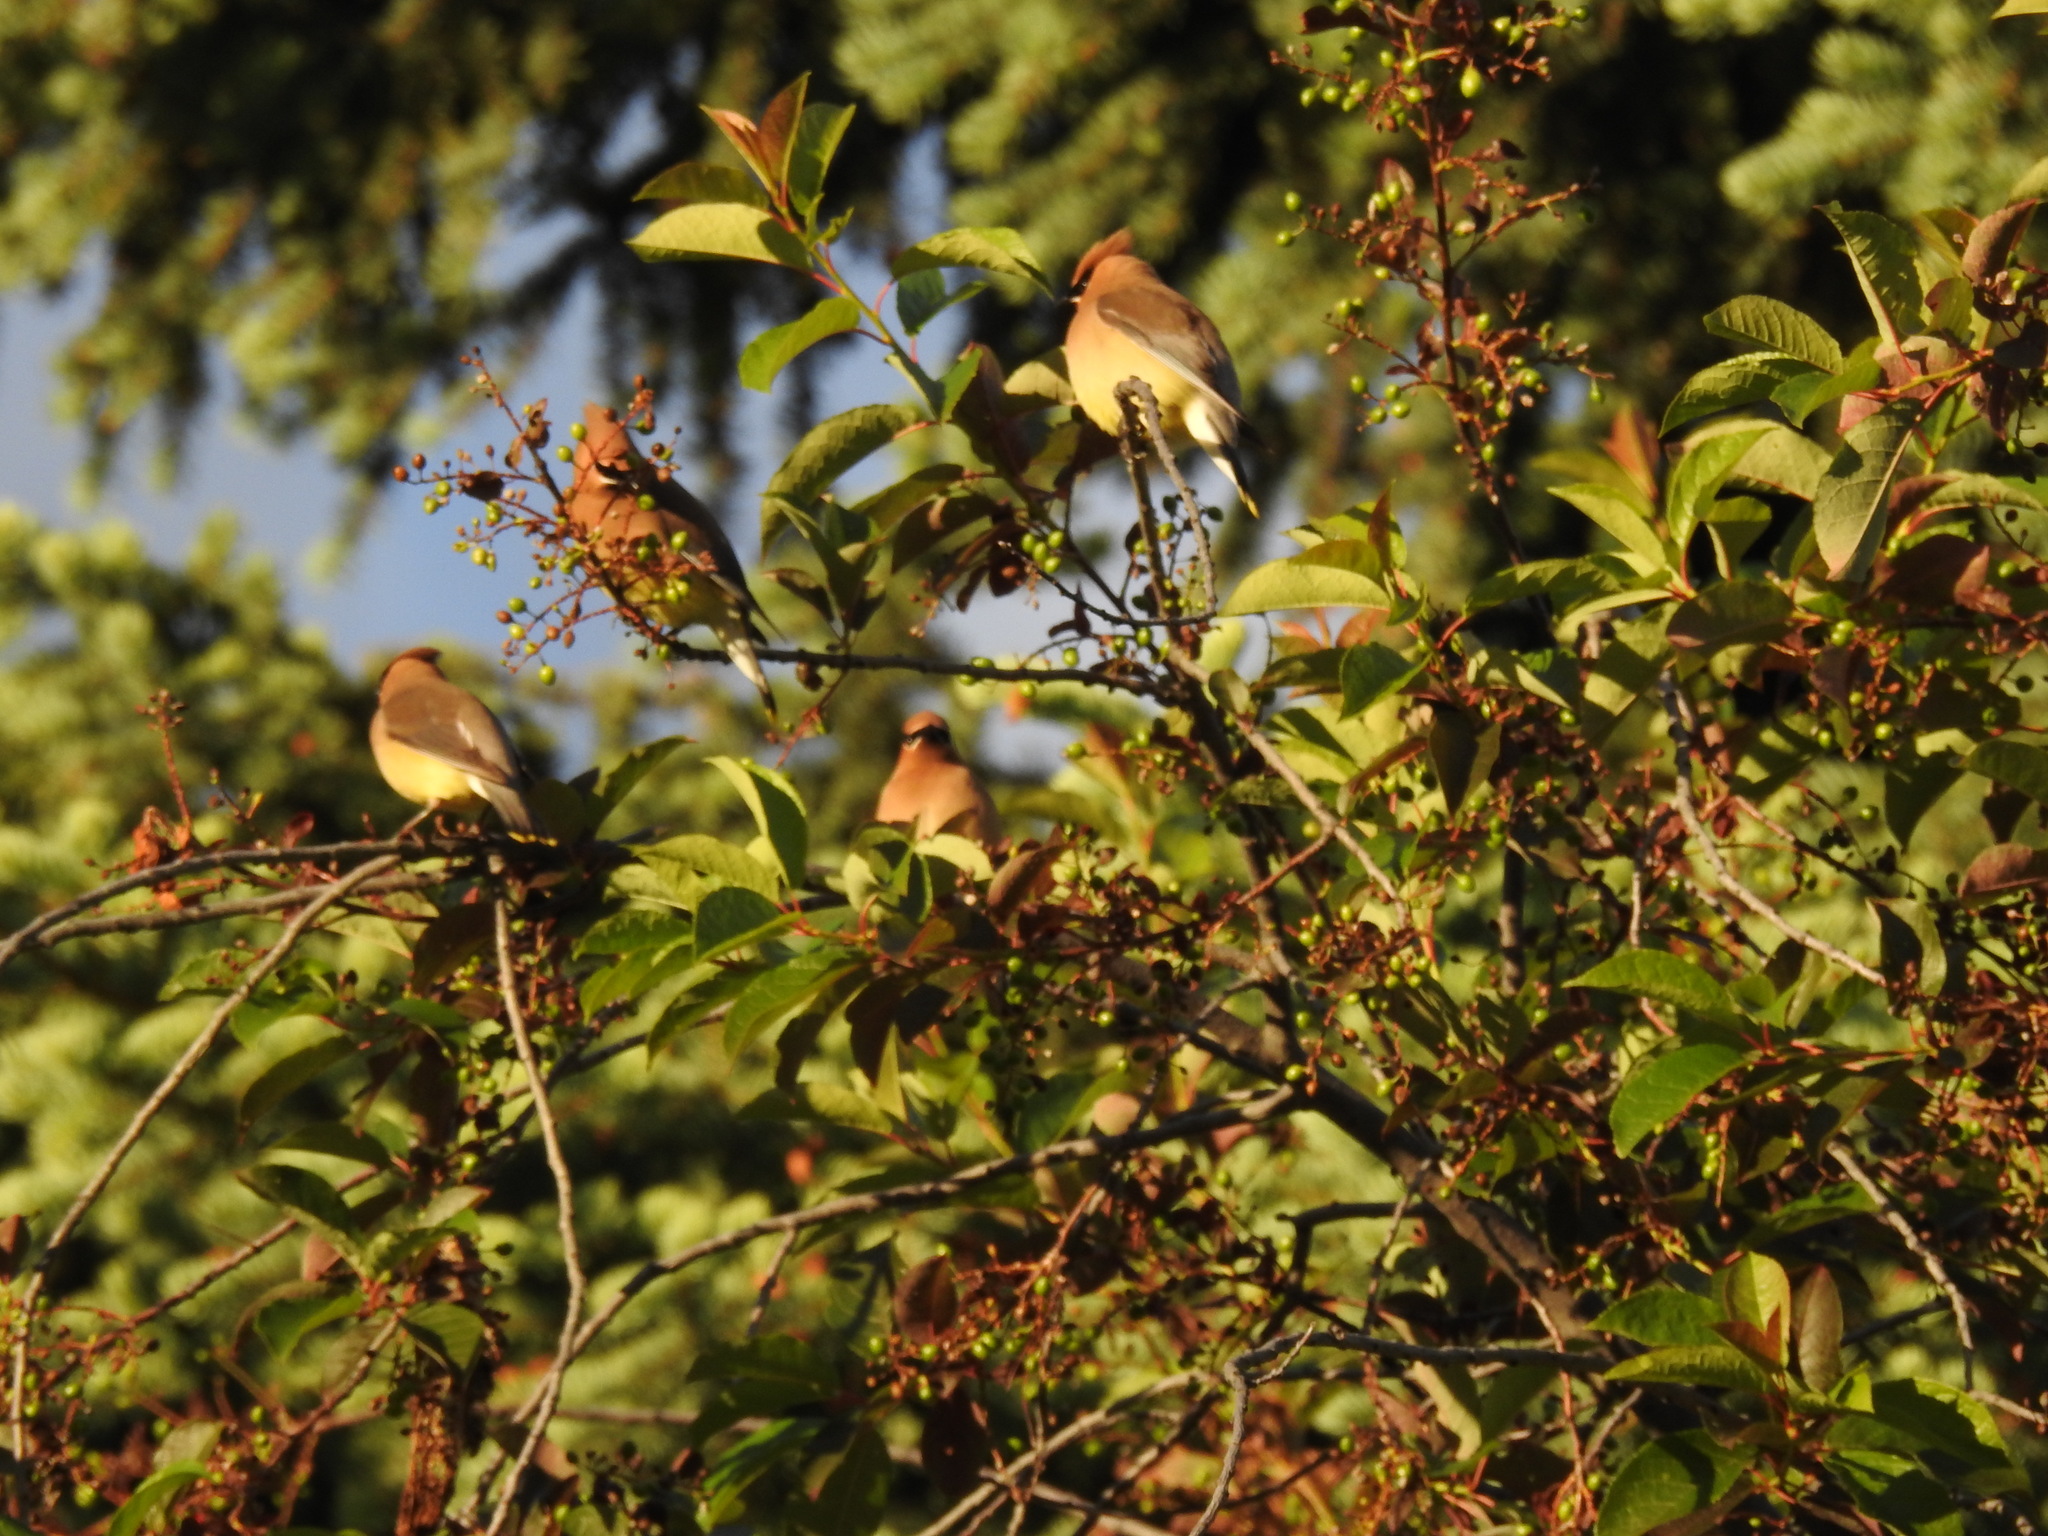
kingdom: Animalia
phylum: Chordata
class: Aves
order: Passeriformes
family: Bombycillidae
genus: Bombycilla
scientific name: Bombycilla cedrorum
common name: Cedar waxwing
